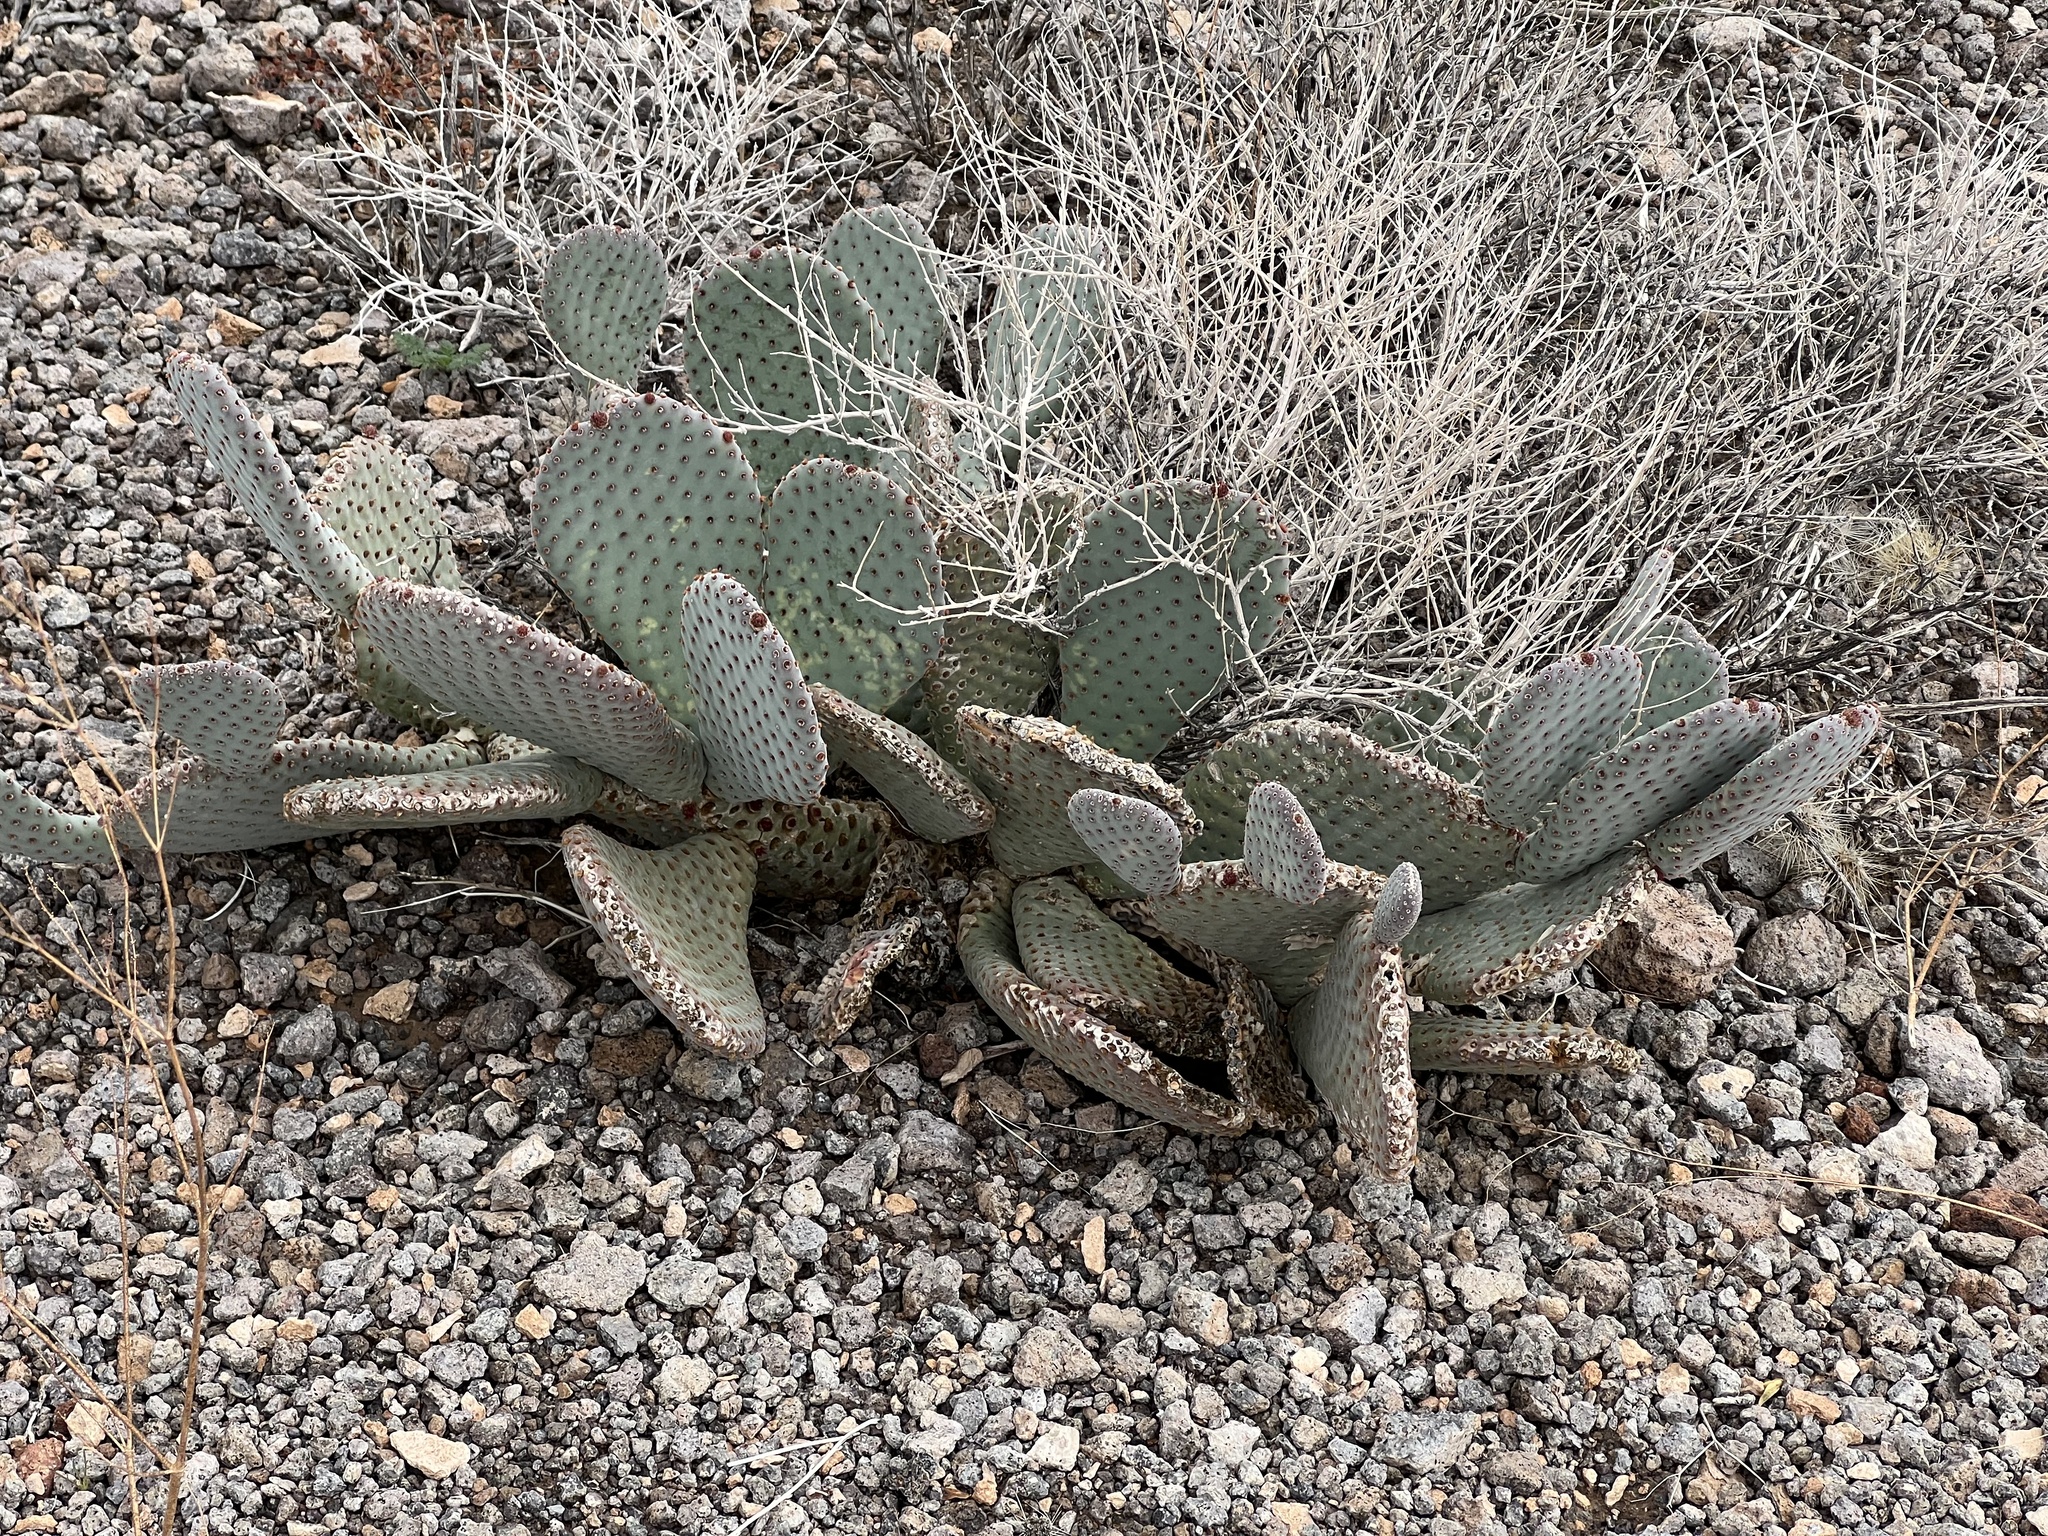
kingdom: Plantae
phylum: Tracheophyta
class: Magnoliopsida
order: Caryophyllales
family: Cactaceae
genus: Opuntia
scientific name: Opuntia basilaris
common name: Beavertail prickly-pear
